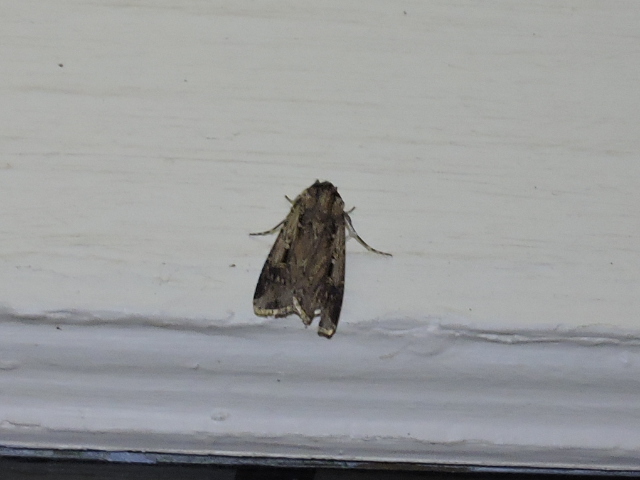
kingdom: Animalia
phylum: Arthropoda
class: Insecta
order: Lepidoptera
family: Noctuidae
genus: Feltia
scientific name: Feltia subterranea
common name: Granulate cutworm
